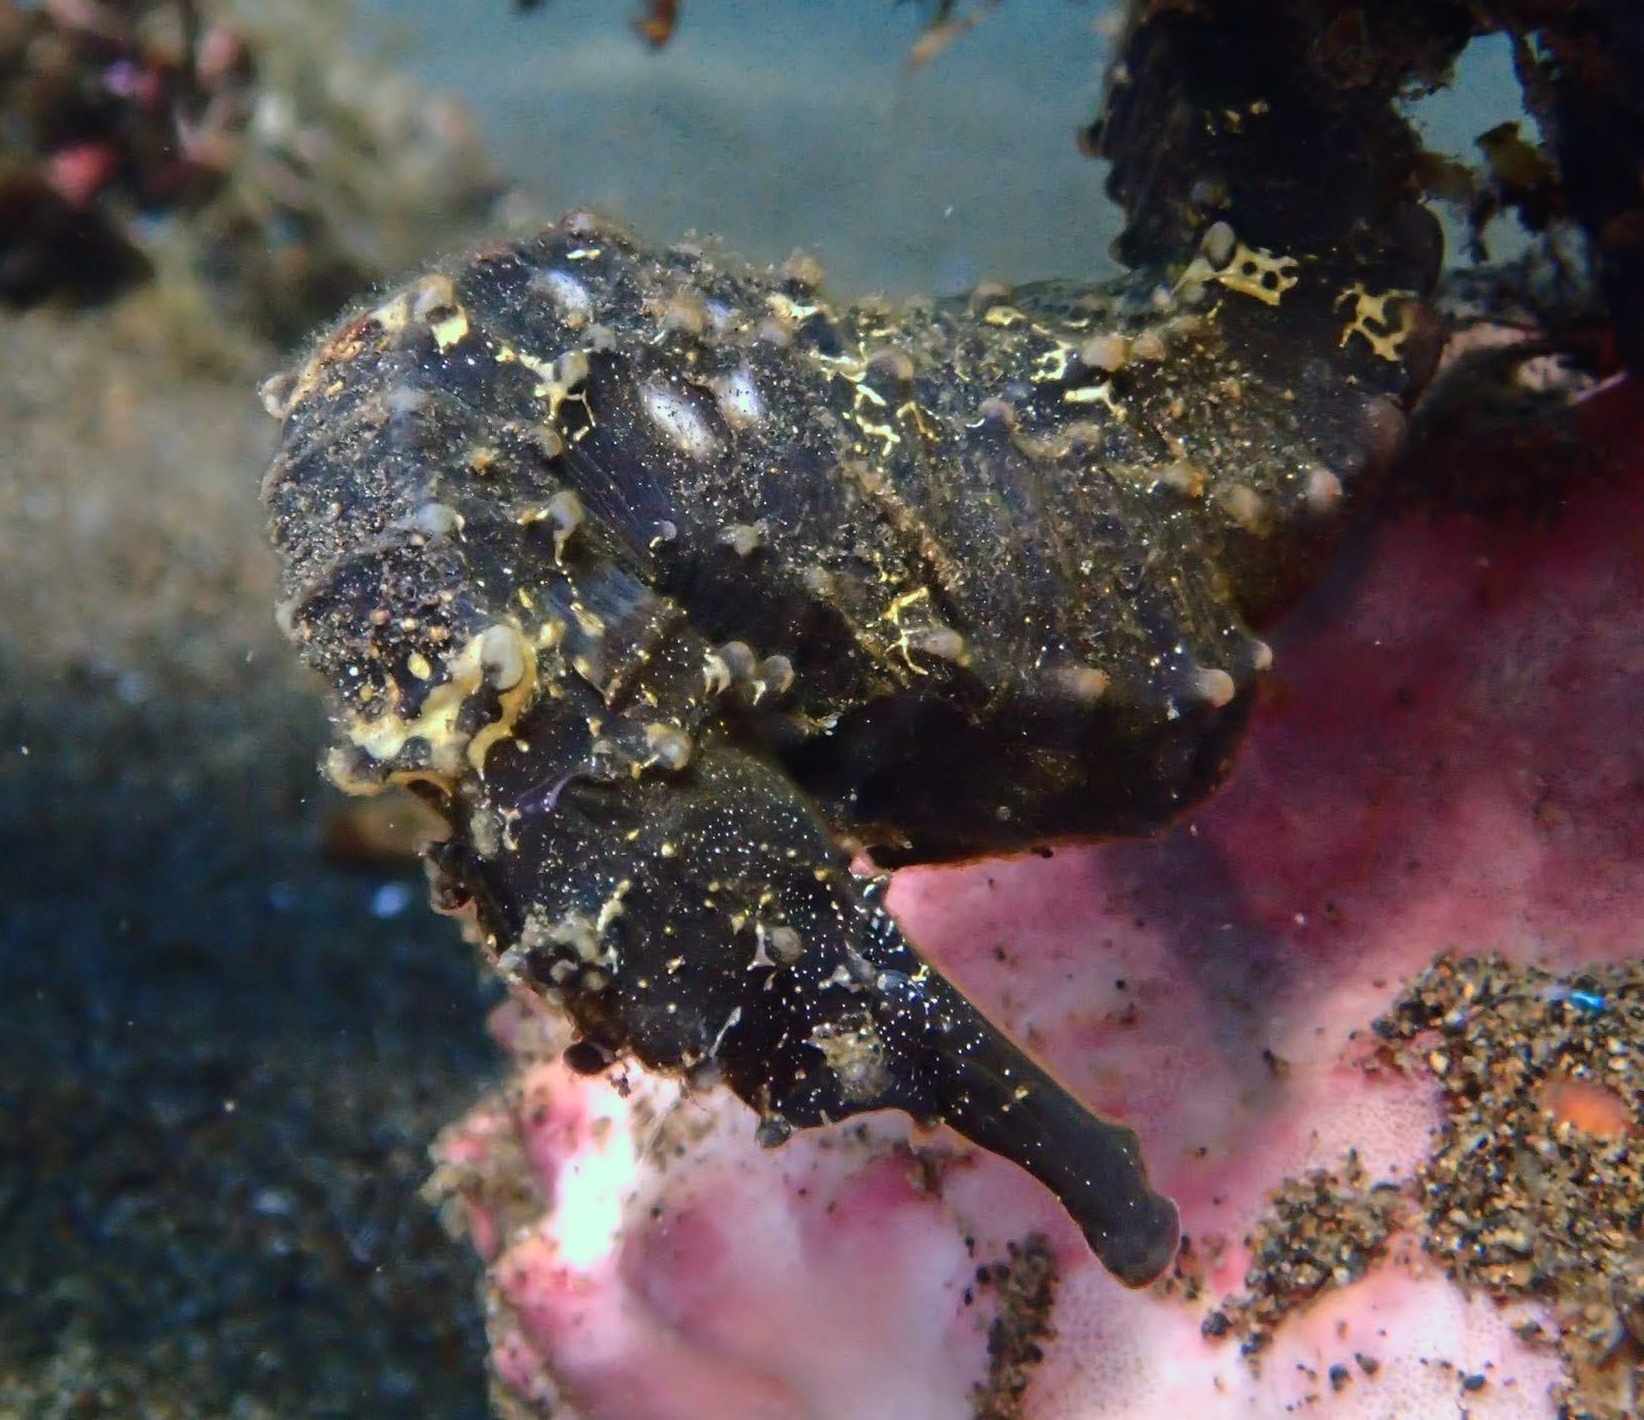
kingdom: Animalia
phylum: Chordata
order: Syngnathiformes
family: Syngnathidae
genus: Hippocampus
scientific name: Hippocampus comes
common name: Tiger tail seahorse
